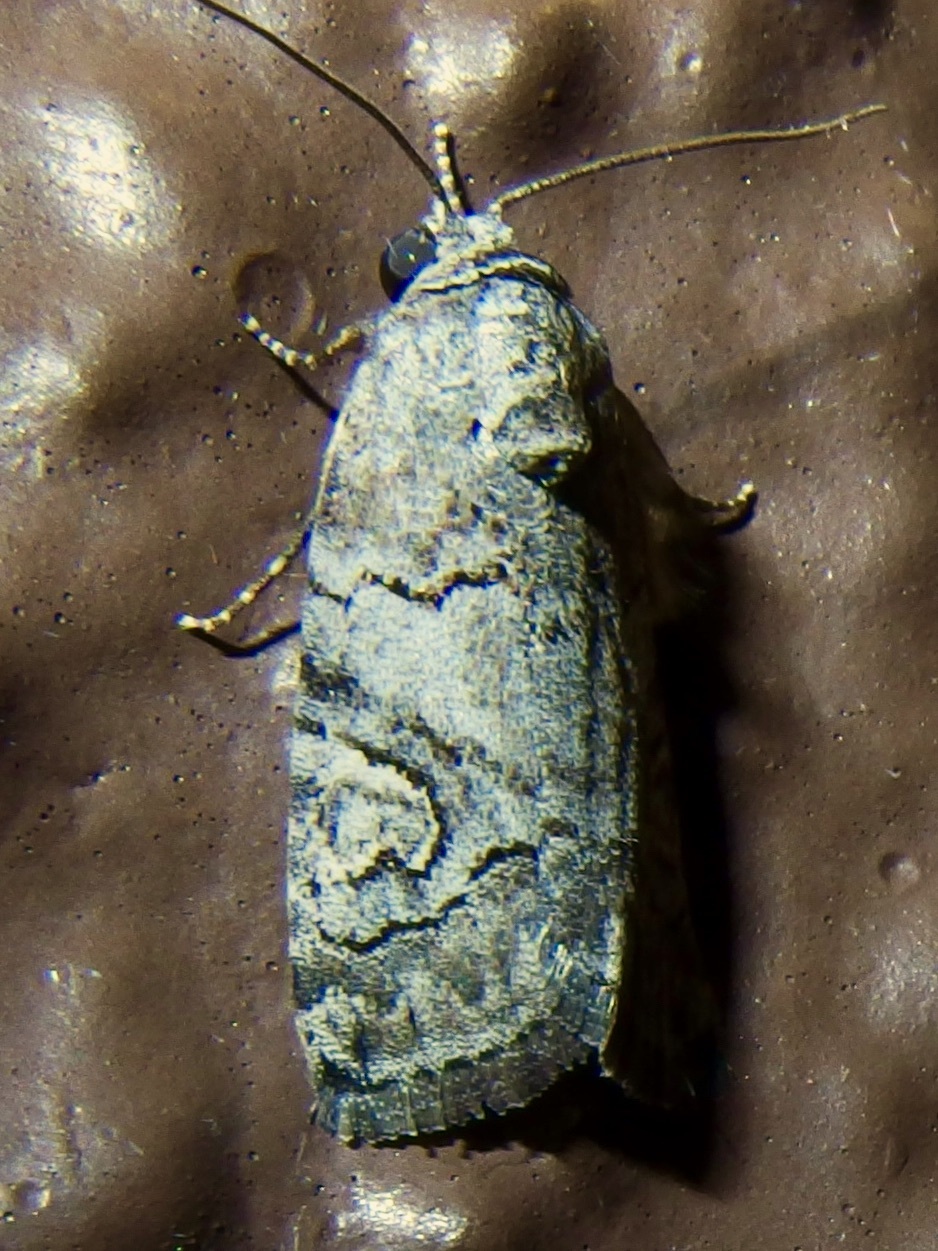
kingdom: Animalia
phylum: Arthropoda
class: Insecta
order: Lepidoptera
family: Noctuidae
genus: Metaponpneumata
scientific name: Metaponpneumata rogenhoferi
